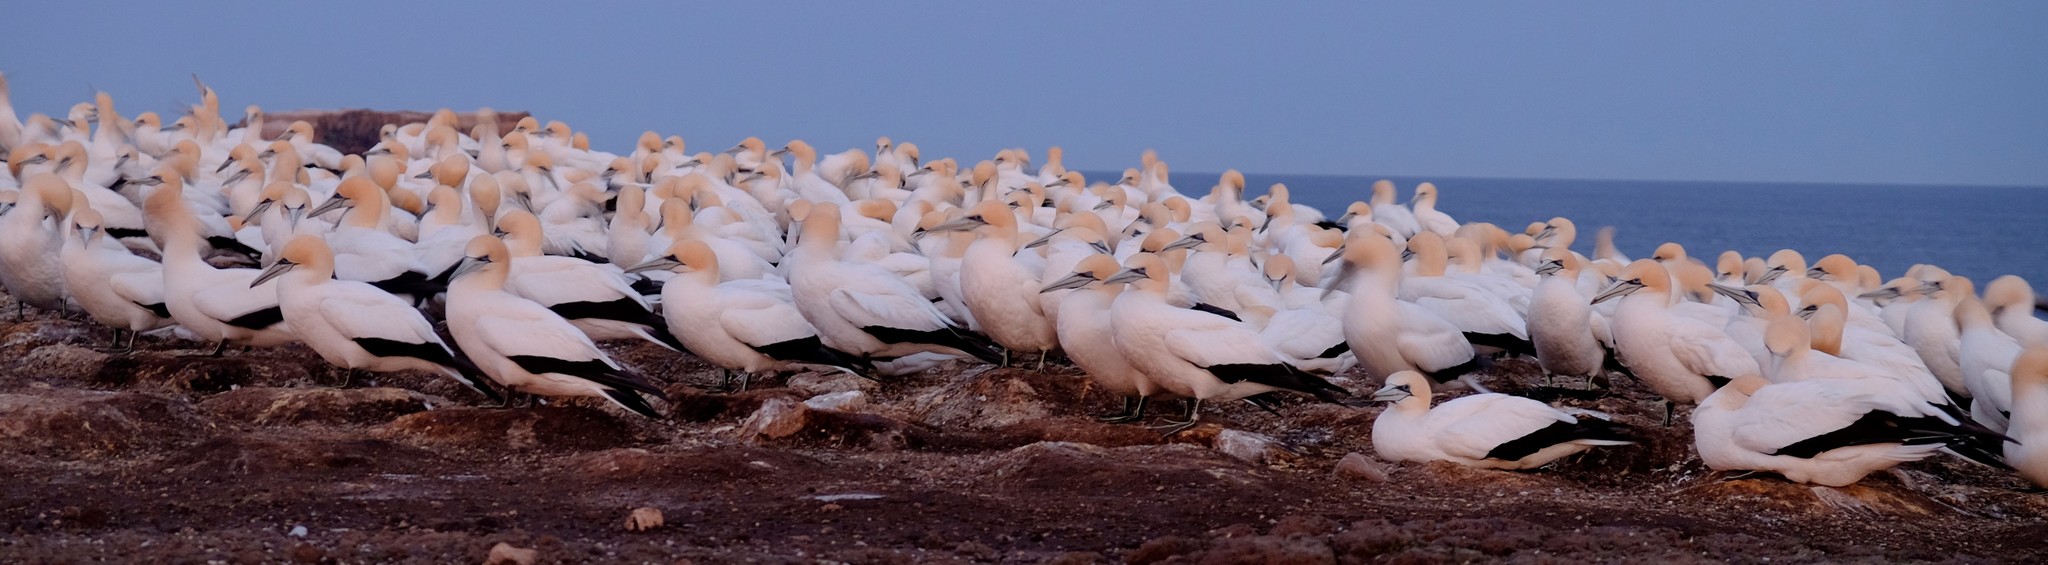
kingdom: Animalia
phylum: Chordata
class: Aves
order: Suliformes
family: Sulidae
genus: Morus
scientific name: Morus serrator
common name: Australasian gannet
